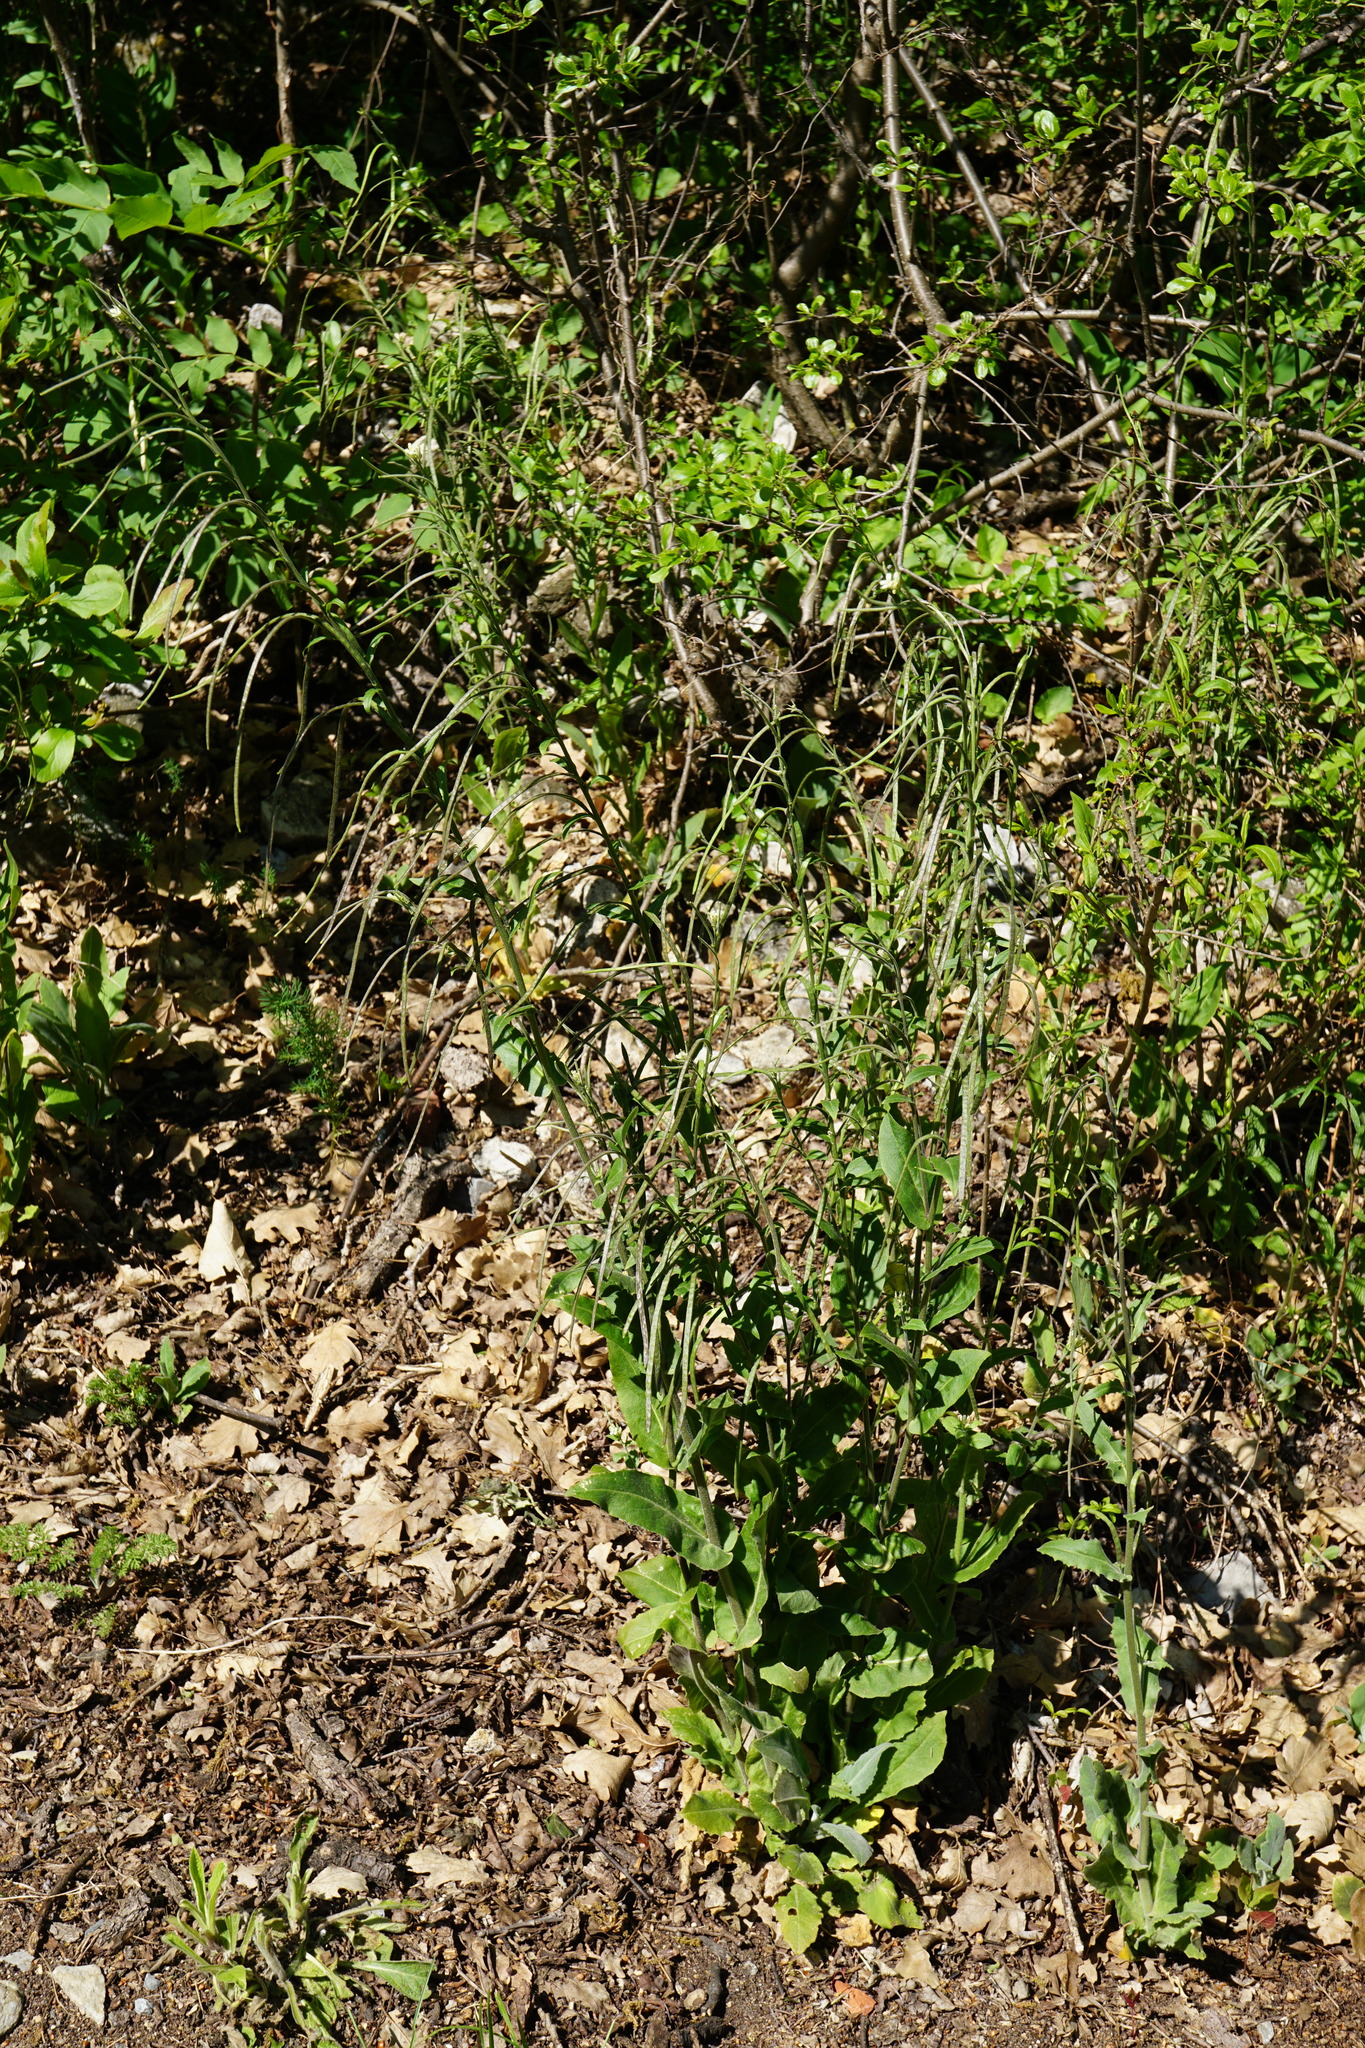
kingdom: Plantae
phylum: Tracheophyta
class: Magnoliopsida
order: Brassicales
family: Brassicaceae
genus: Pseudoturritis
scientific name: Pseudoturritis turrita
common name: Tower cress
